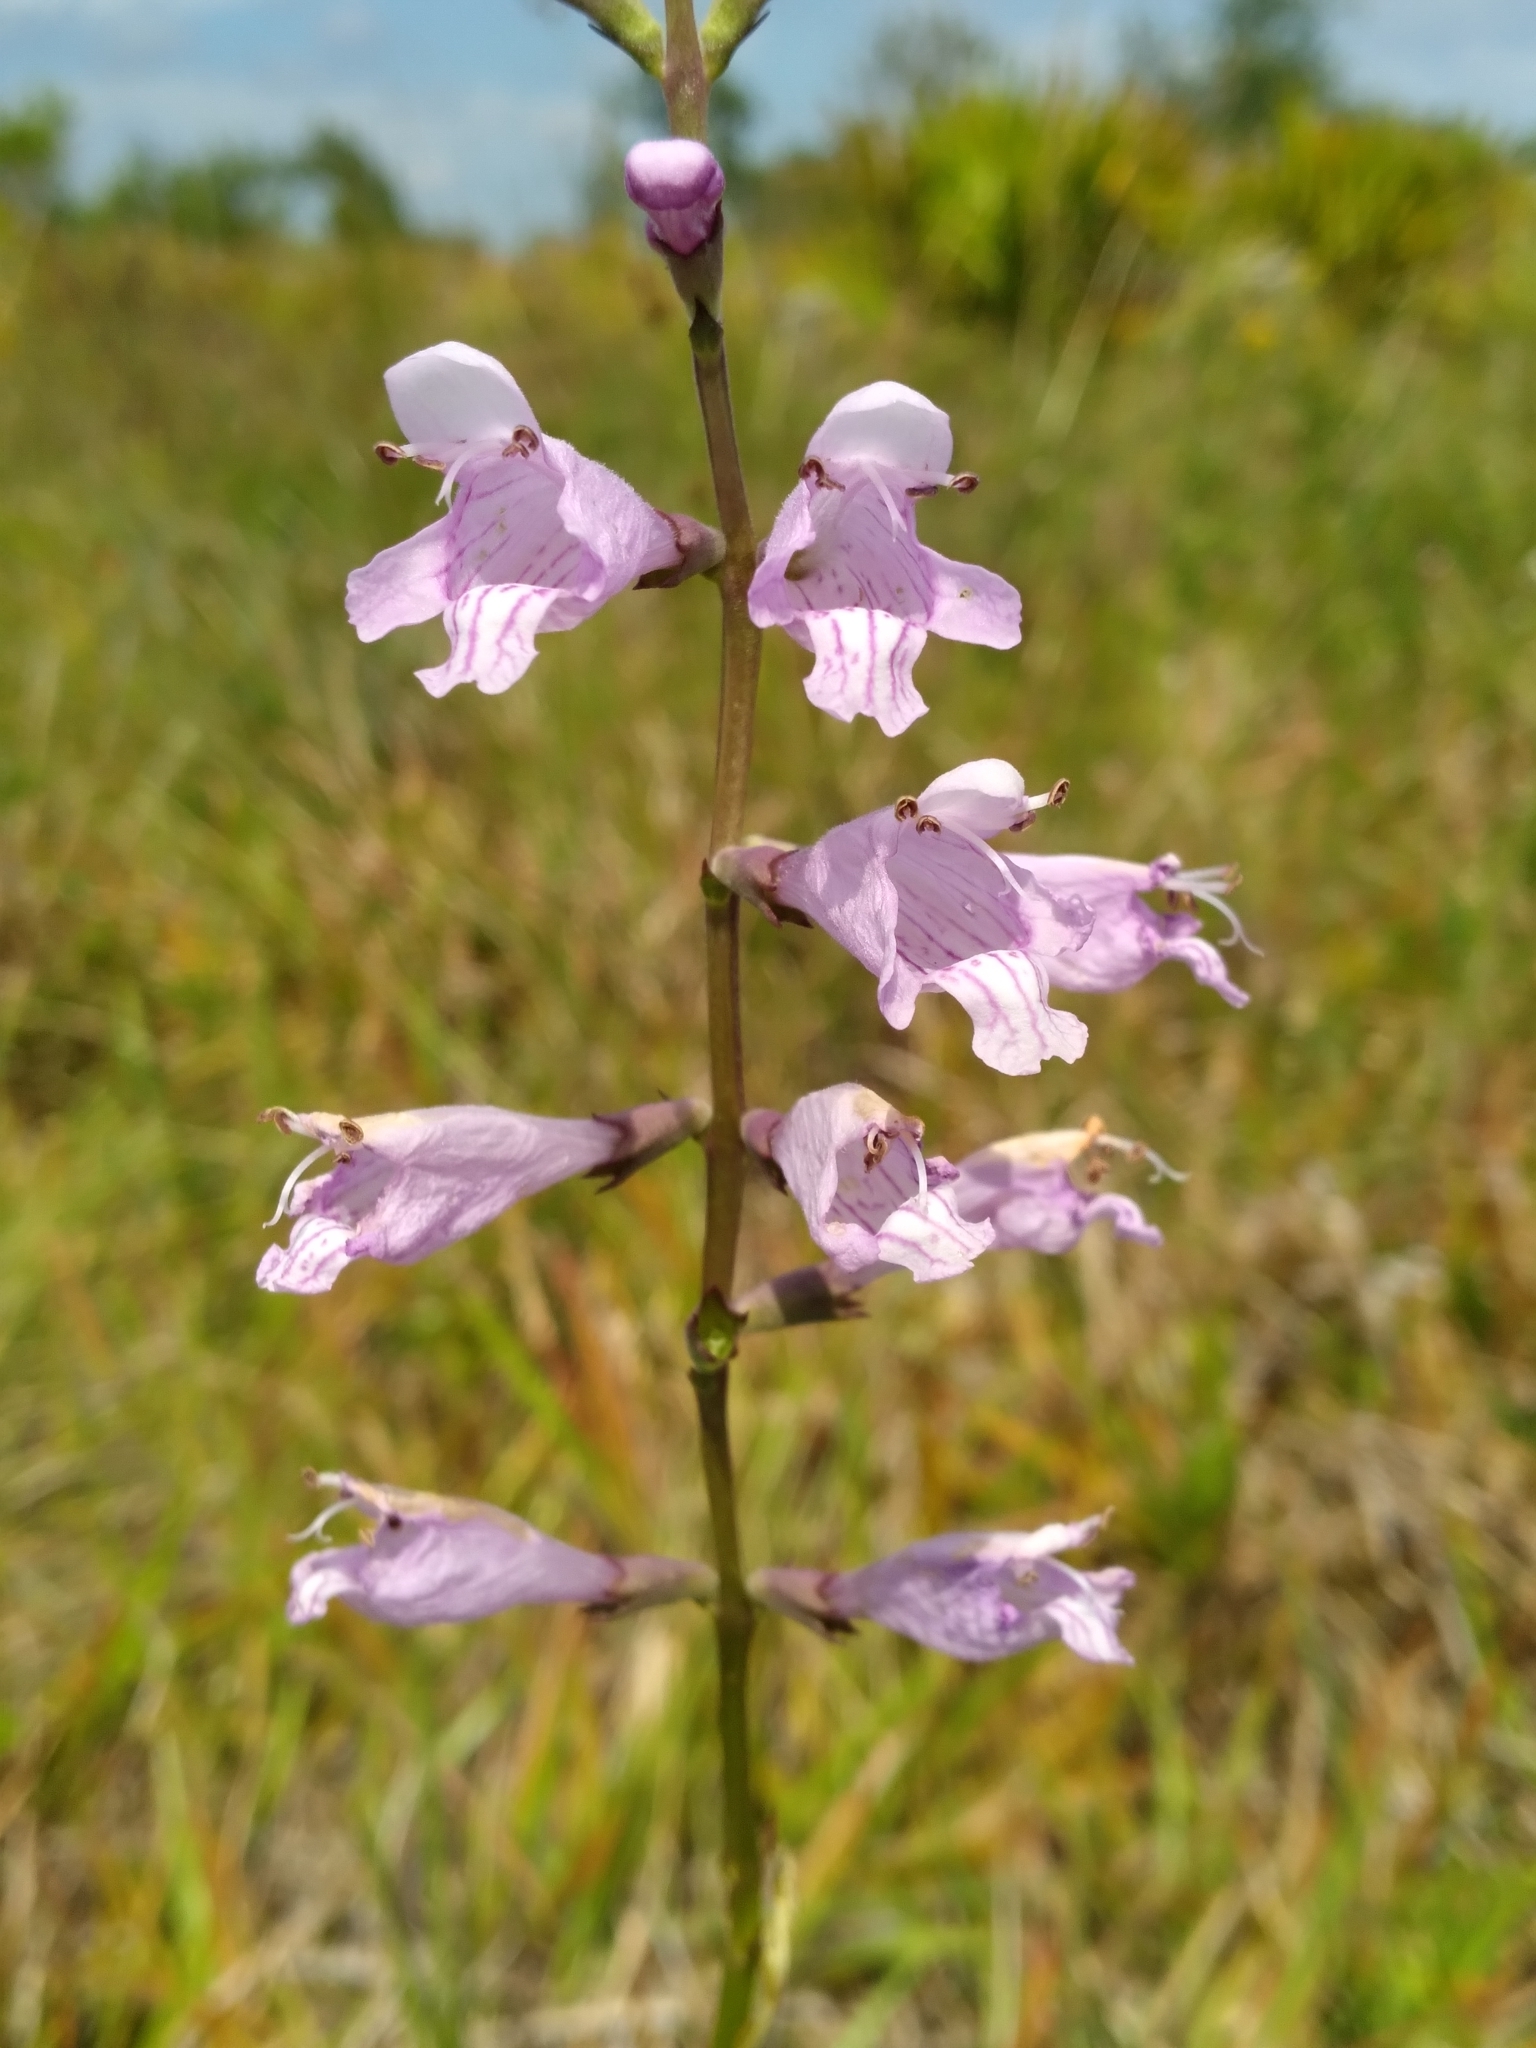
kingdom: Plantae
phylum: Tracheophyta
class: Magnoliopsida
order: Lamiales
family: Lamiaceae
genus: Physostegia
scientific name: Physostegia purpurea
